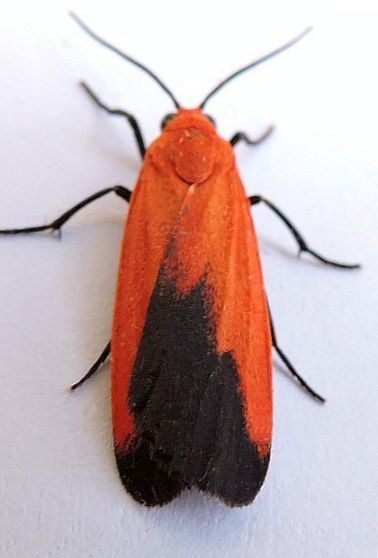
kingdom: Animalia
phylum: Arthropoda
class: Insecta
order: Lepidoptera
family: Erebidae
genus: Ptychoglene
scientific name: Ptychoglene coccinea
